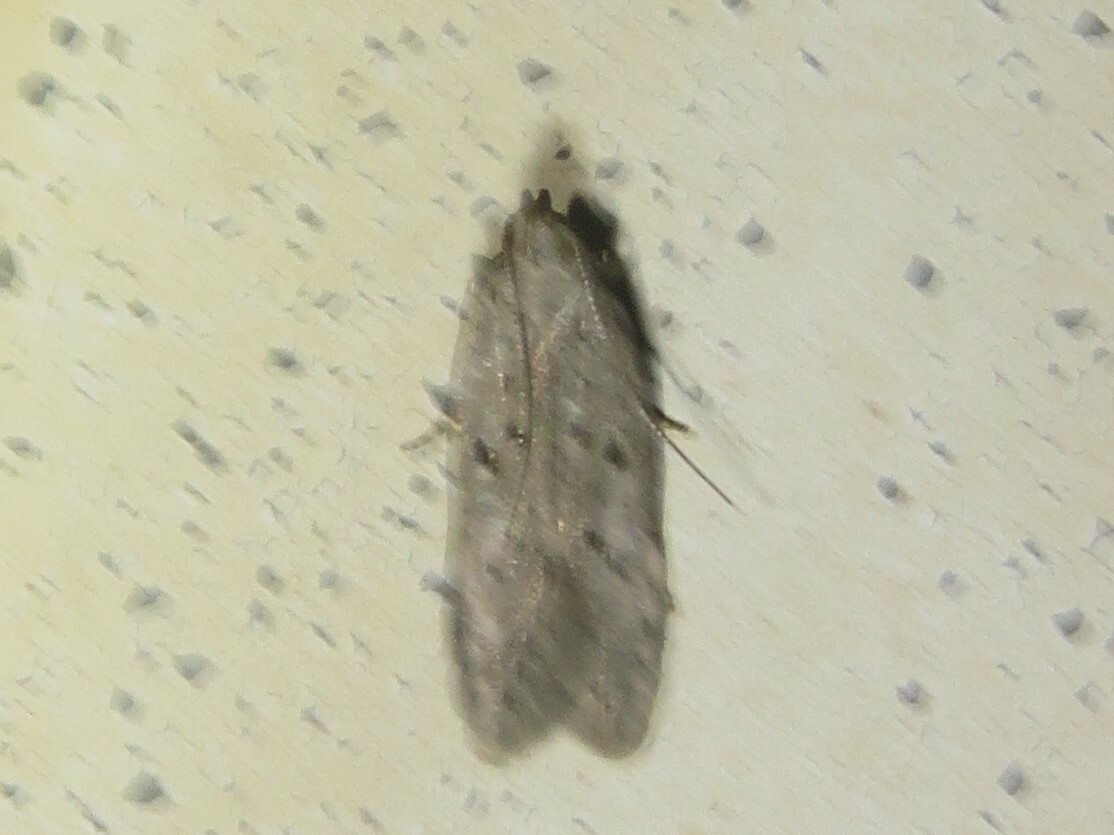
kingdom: Animalia
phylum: Arthropoda
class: Insecta
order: Lepidoptera
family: Gelechiidae
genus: Athrips
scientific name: Athrips mouffetella
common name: Dotted grey groundling
